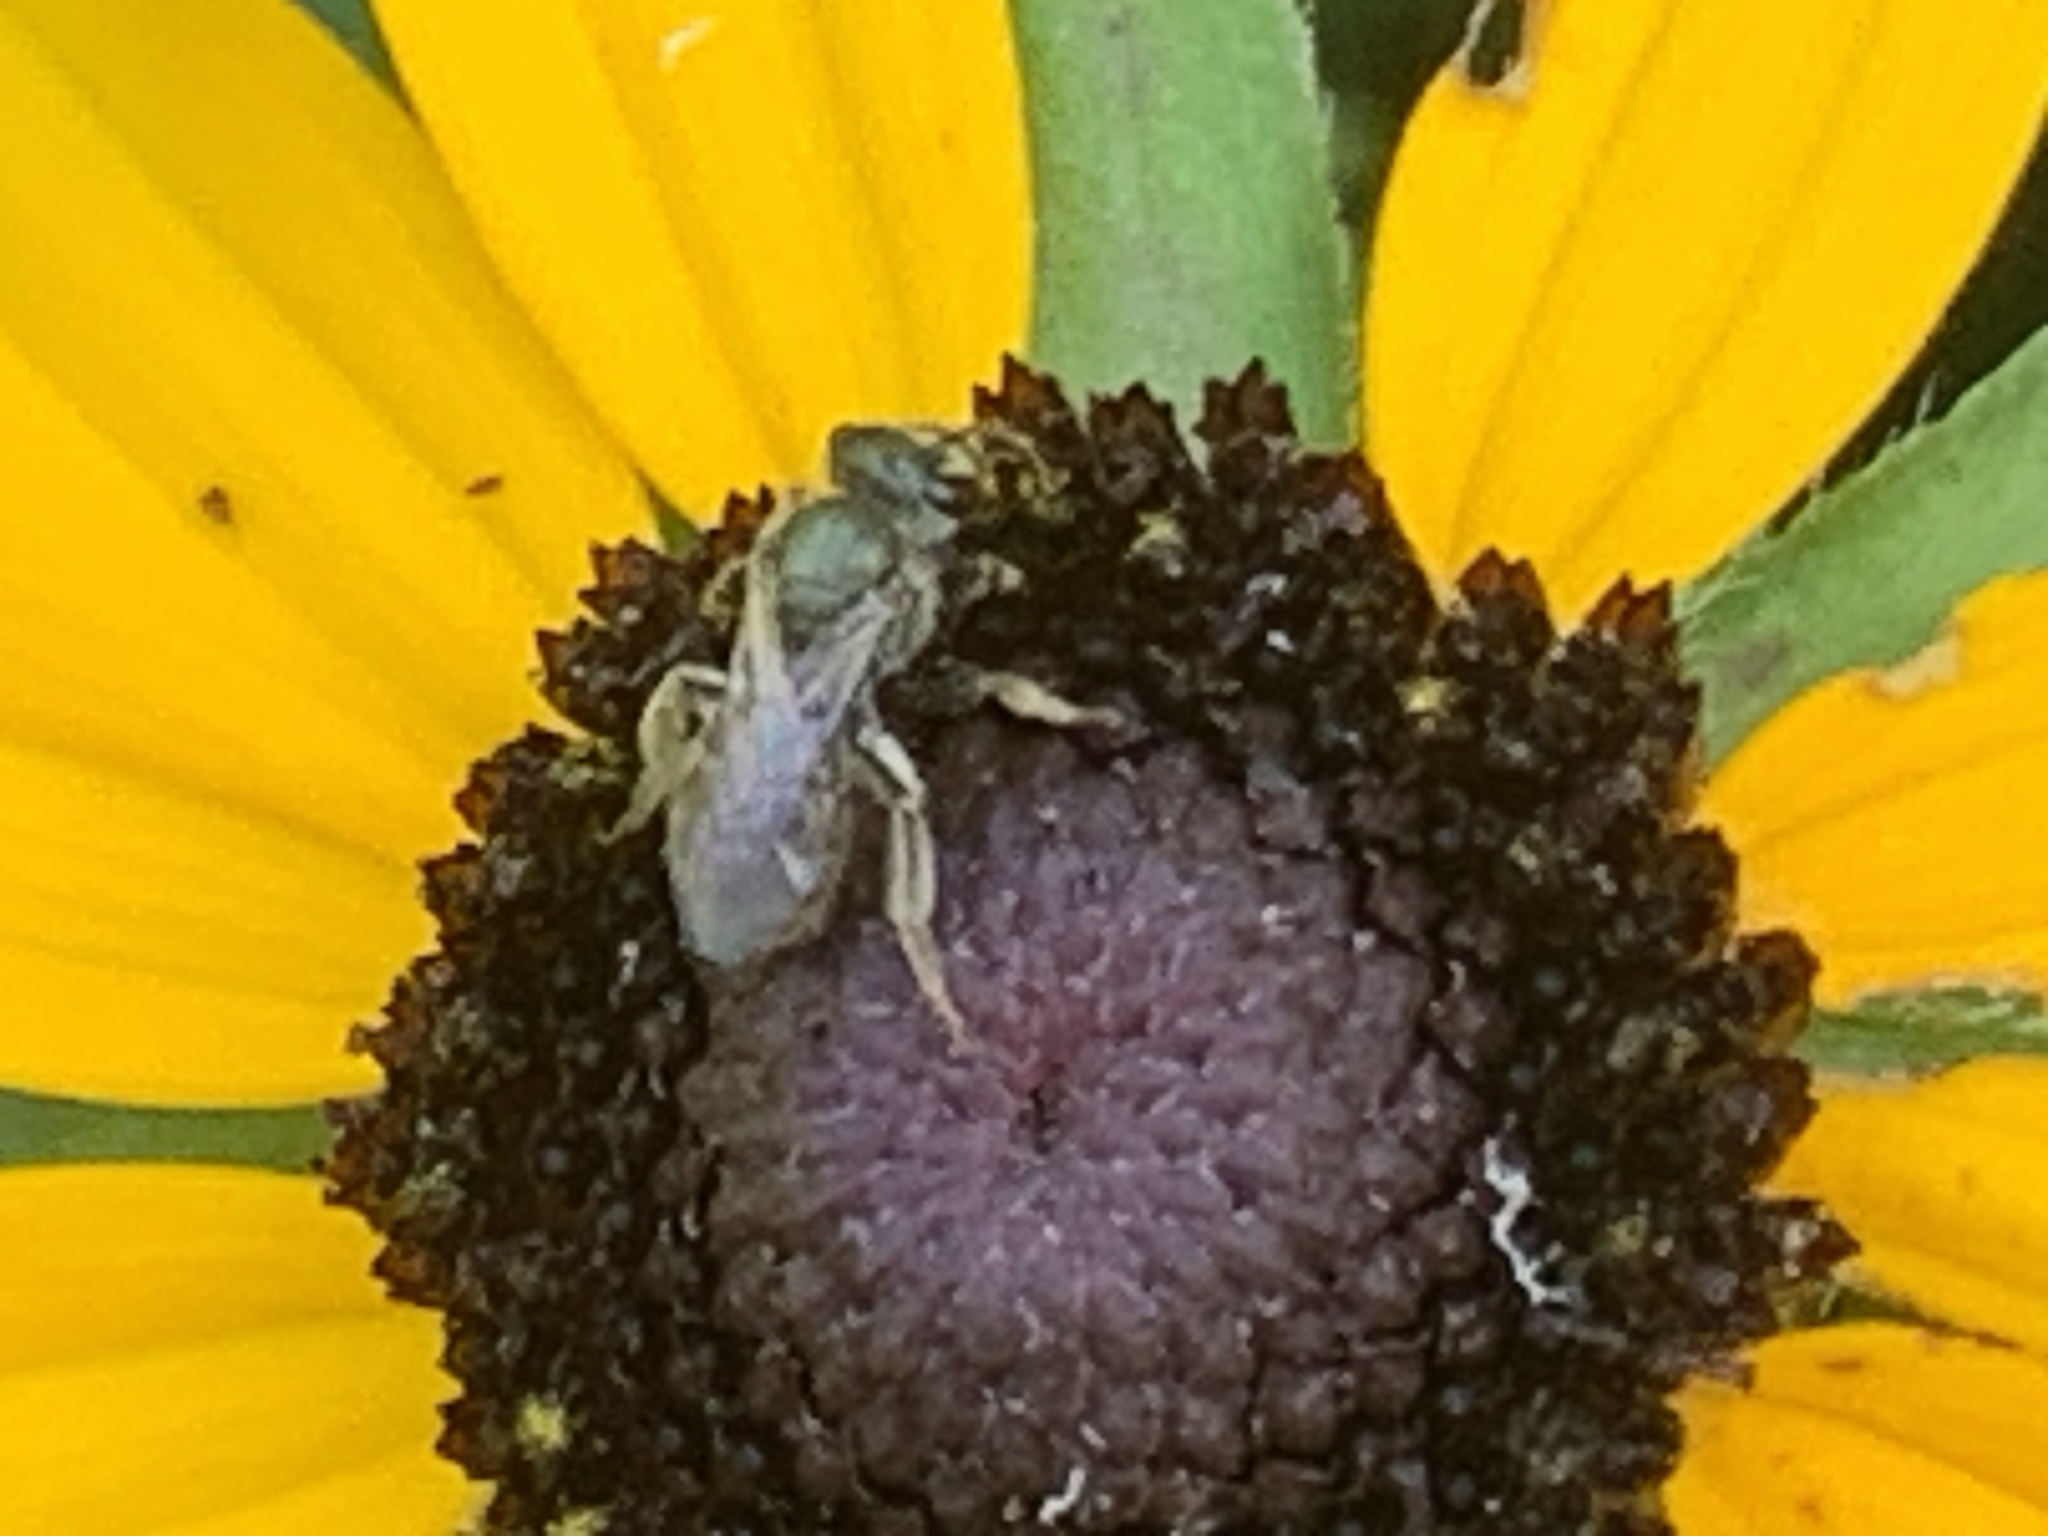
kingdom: Animalia
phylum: Arthropoda
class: Insecta
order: Hymenoptera
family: Halictidae
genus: Dialictus
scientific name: Dialictus
